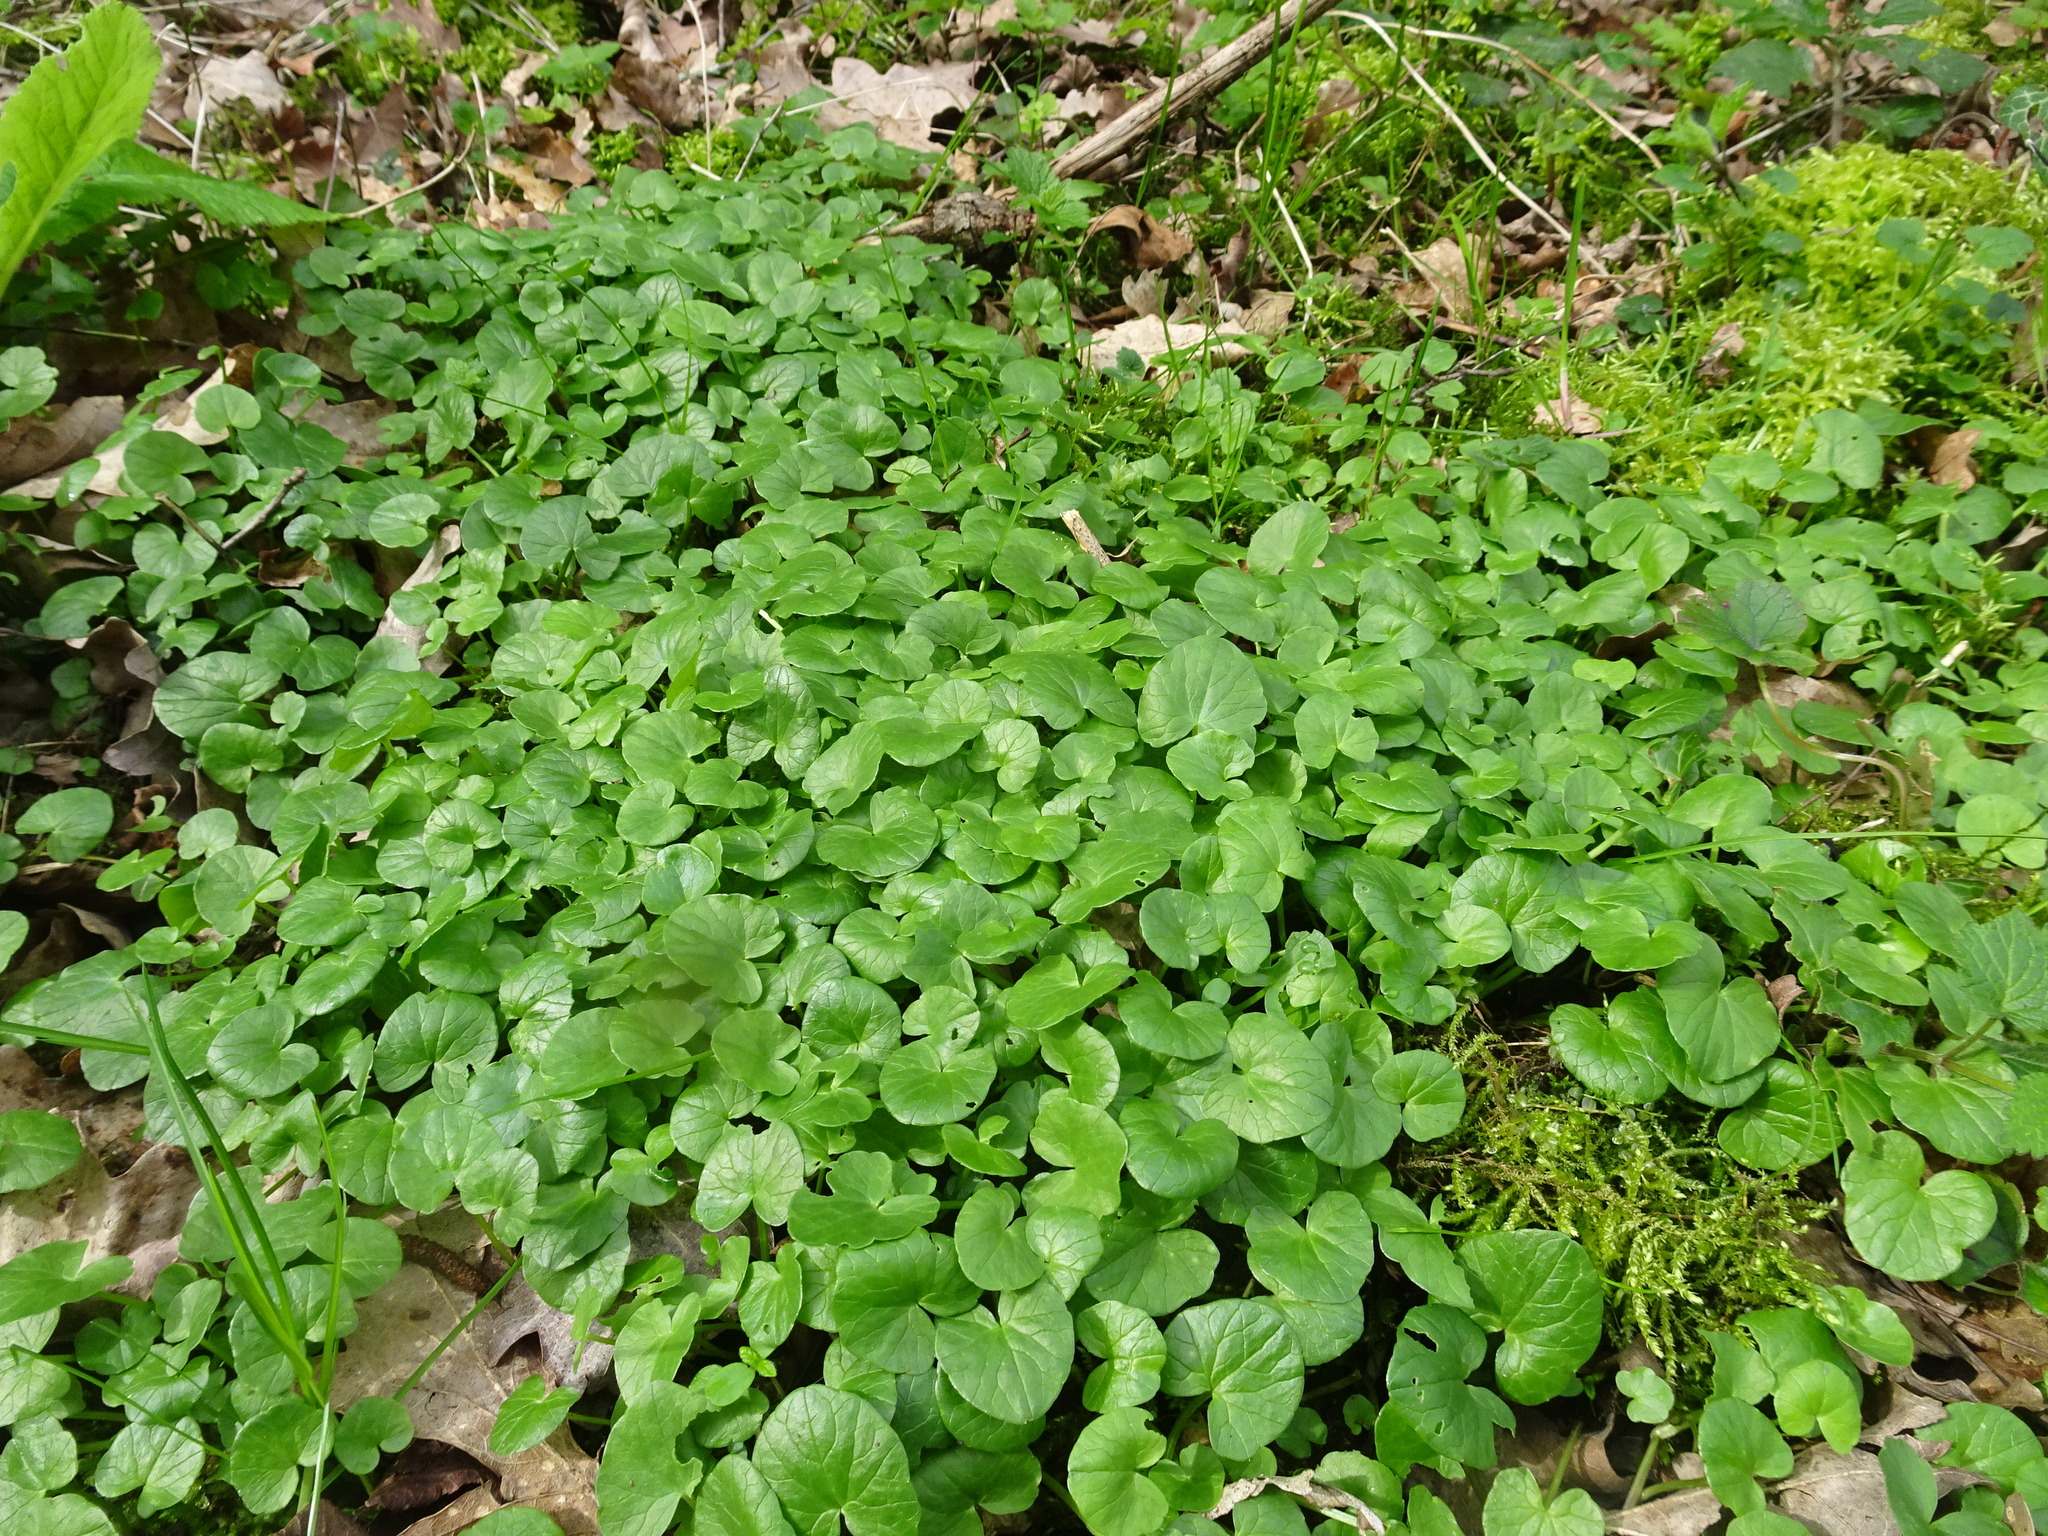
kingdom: Plantae
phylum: Tracheophyta
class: Magnoliopsida
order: Ranunculales
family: Ranunculaceae
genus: Ficaria
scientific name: Ficaria verna
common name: Lesser celandine
